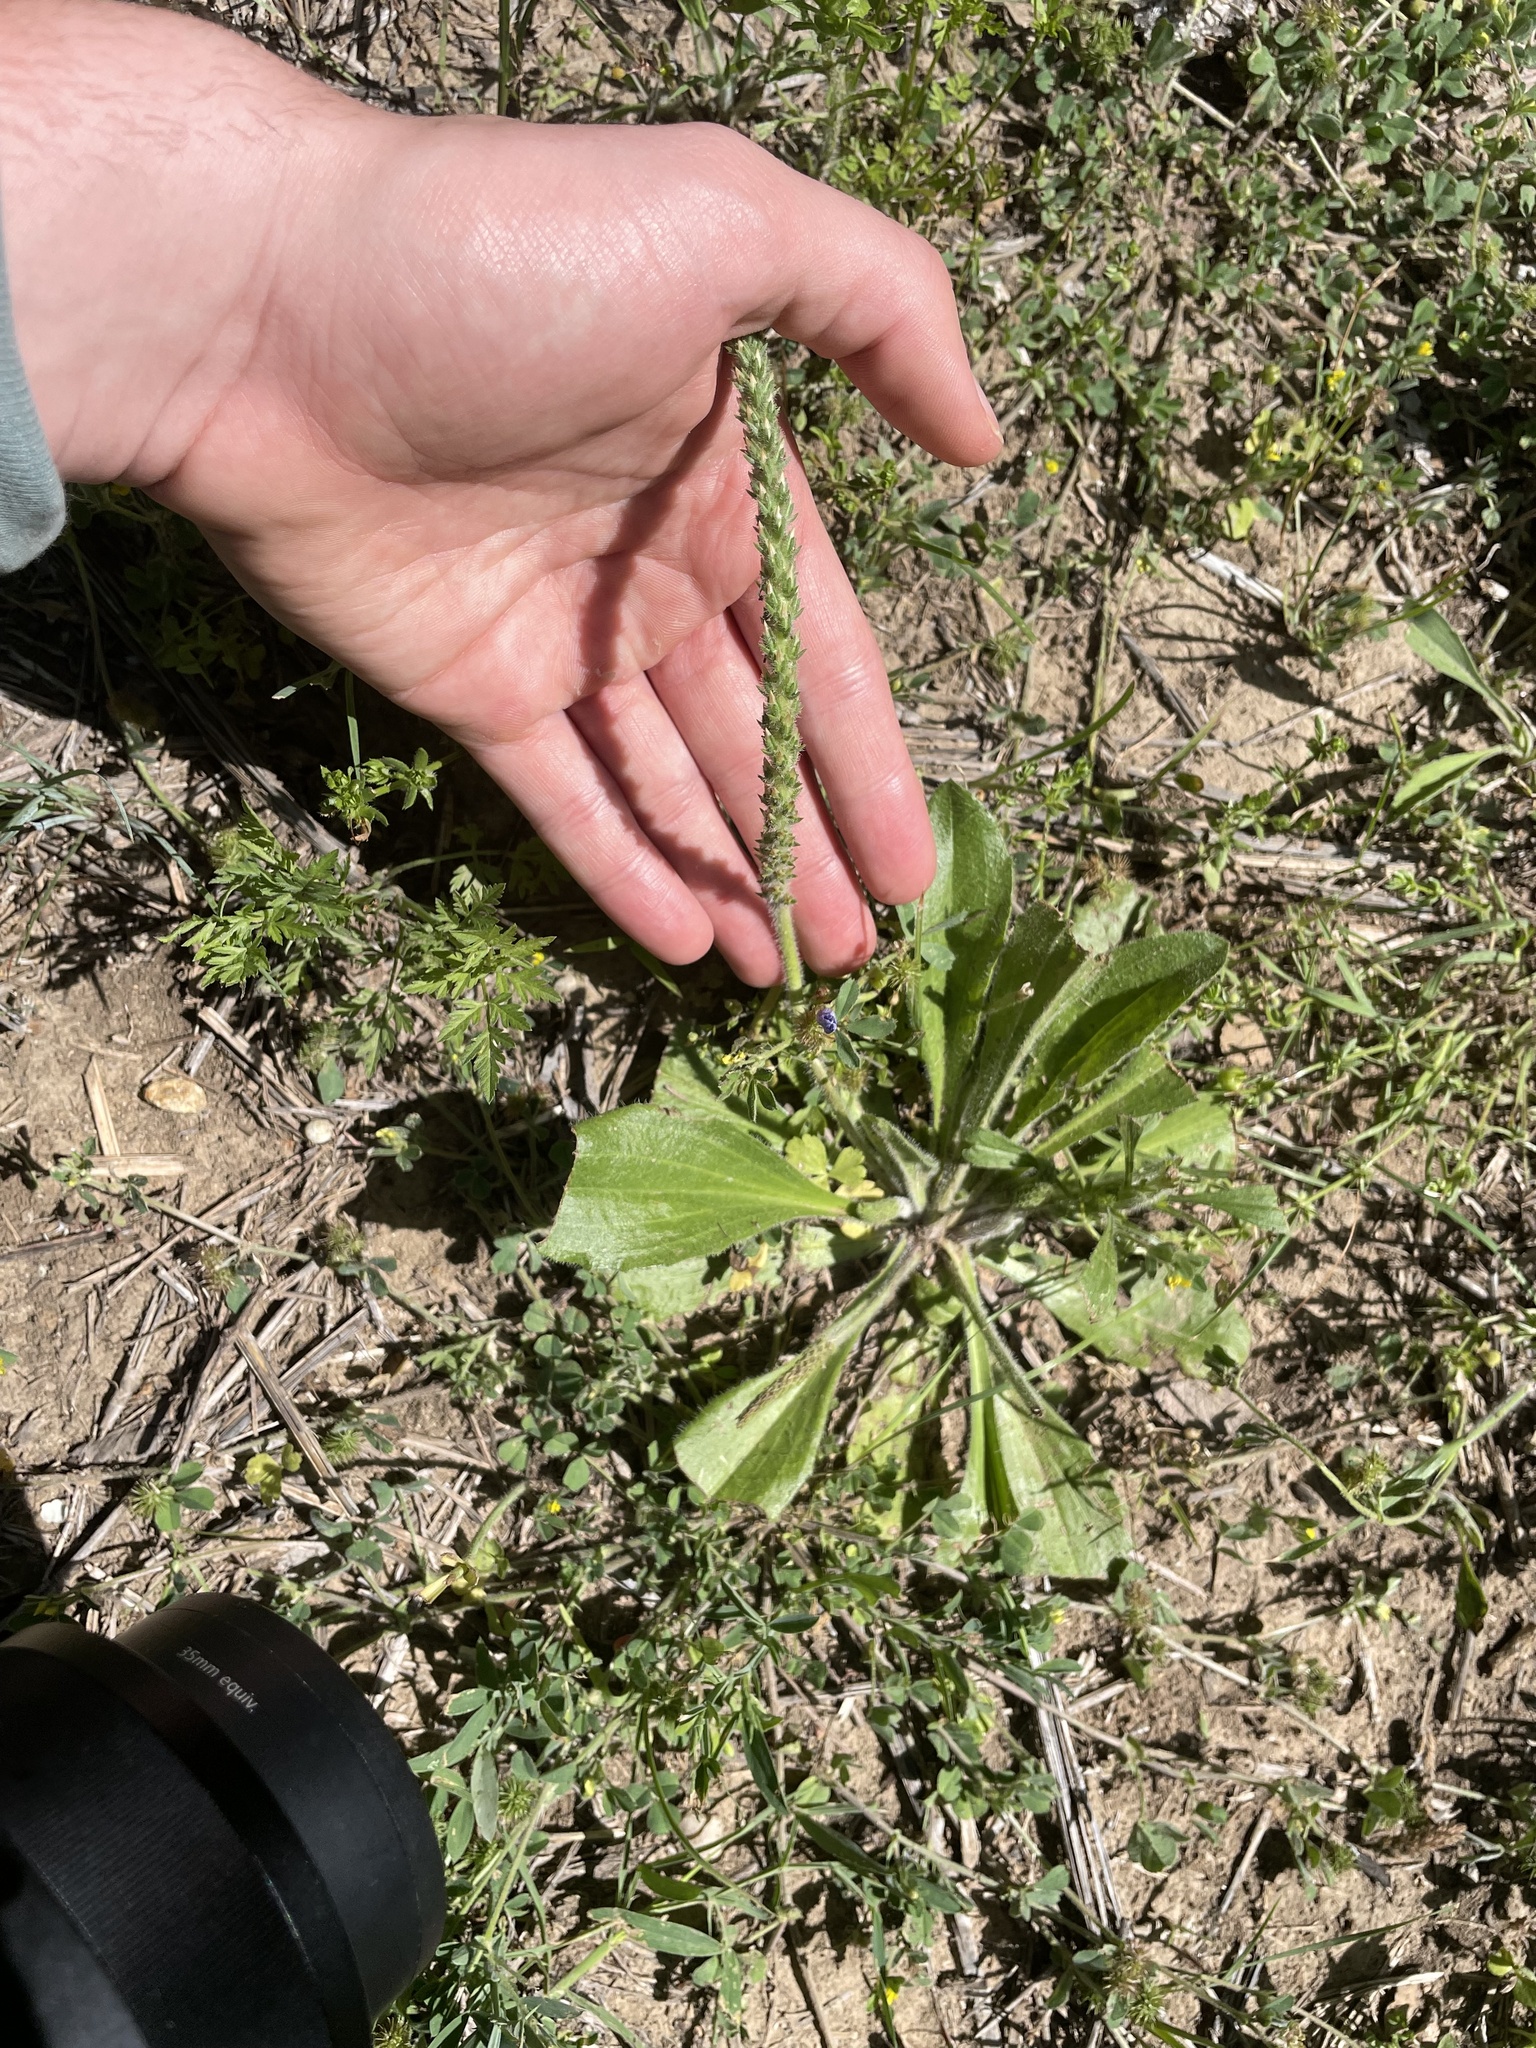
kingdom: Plantae
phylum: Tracheophyta
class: Magnoliopsida
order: Lamiales
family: Plantaginaceae
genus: Plantago
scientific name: Plantago rhodosperma
